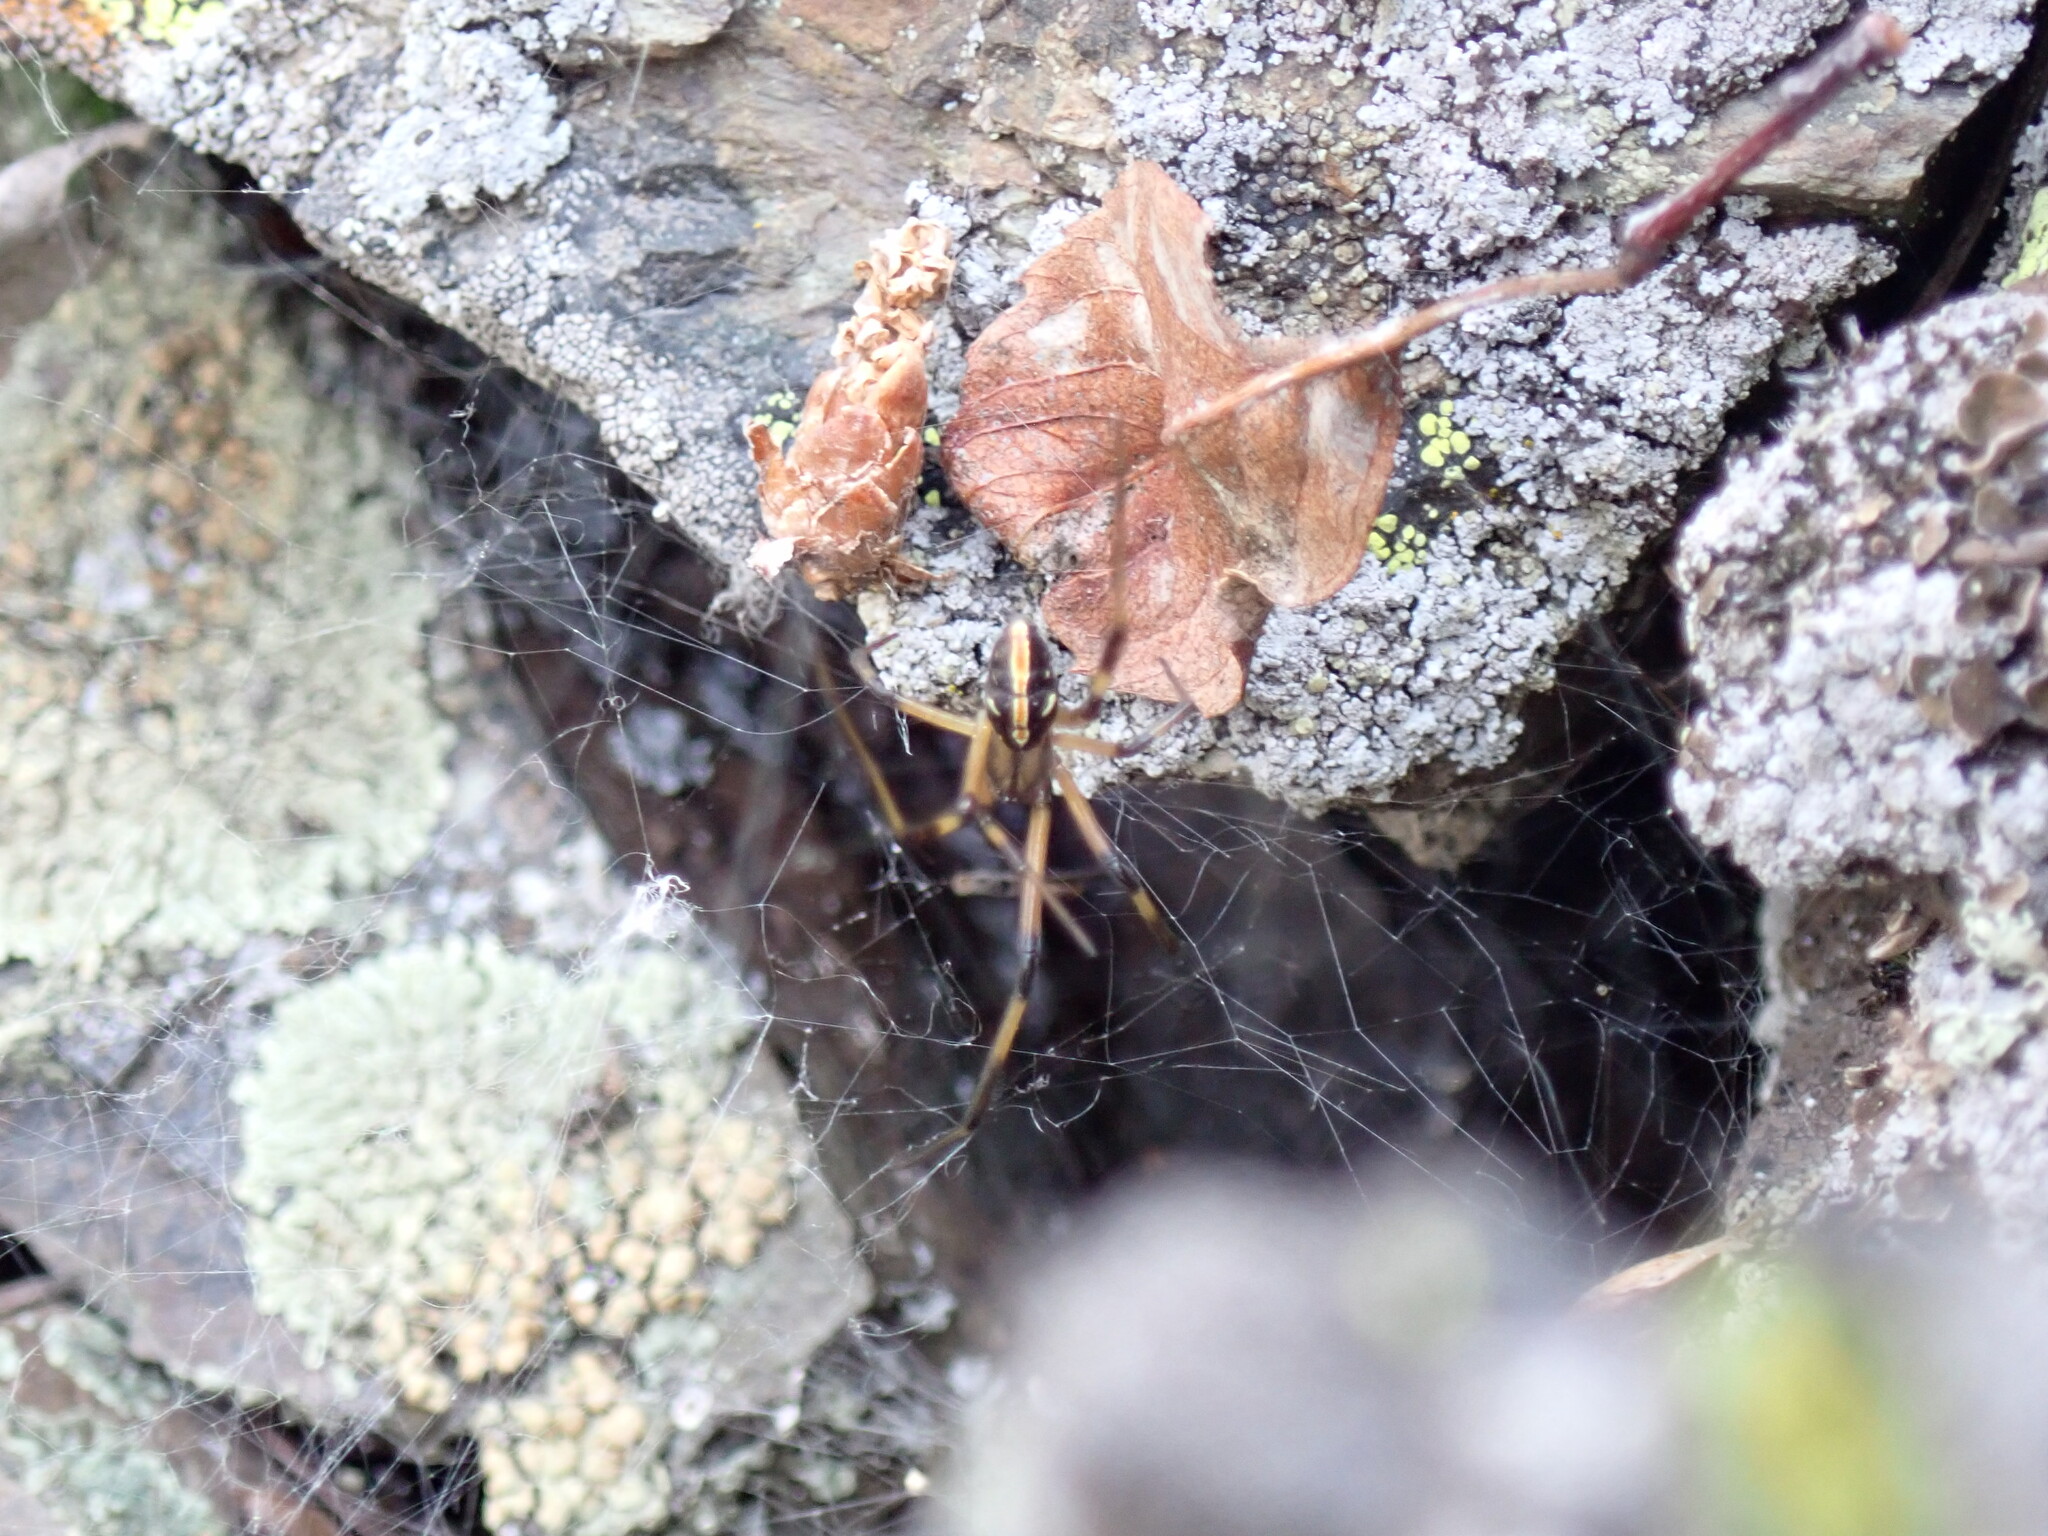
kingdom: Animalia
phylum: Arthropoda
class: Arachnida
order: Araneae
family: Theridiidae
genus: Latrodectus
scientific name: Latrodectus hesperus
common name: Western black widow
